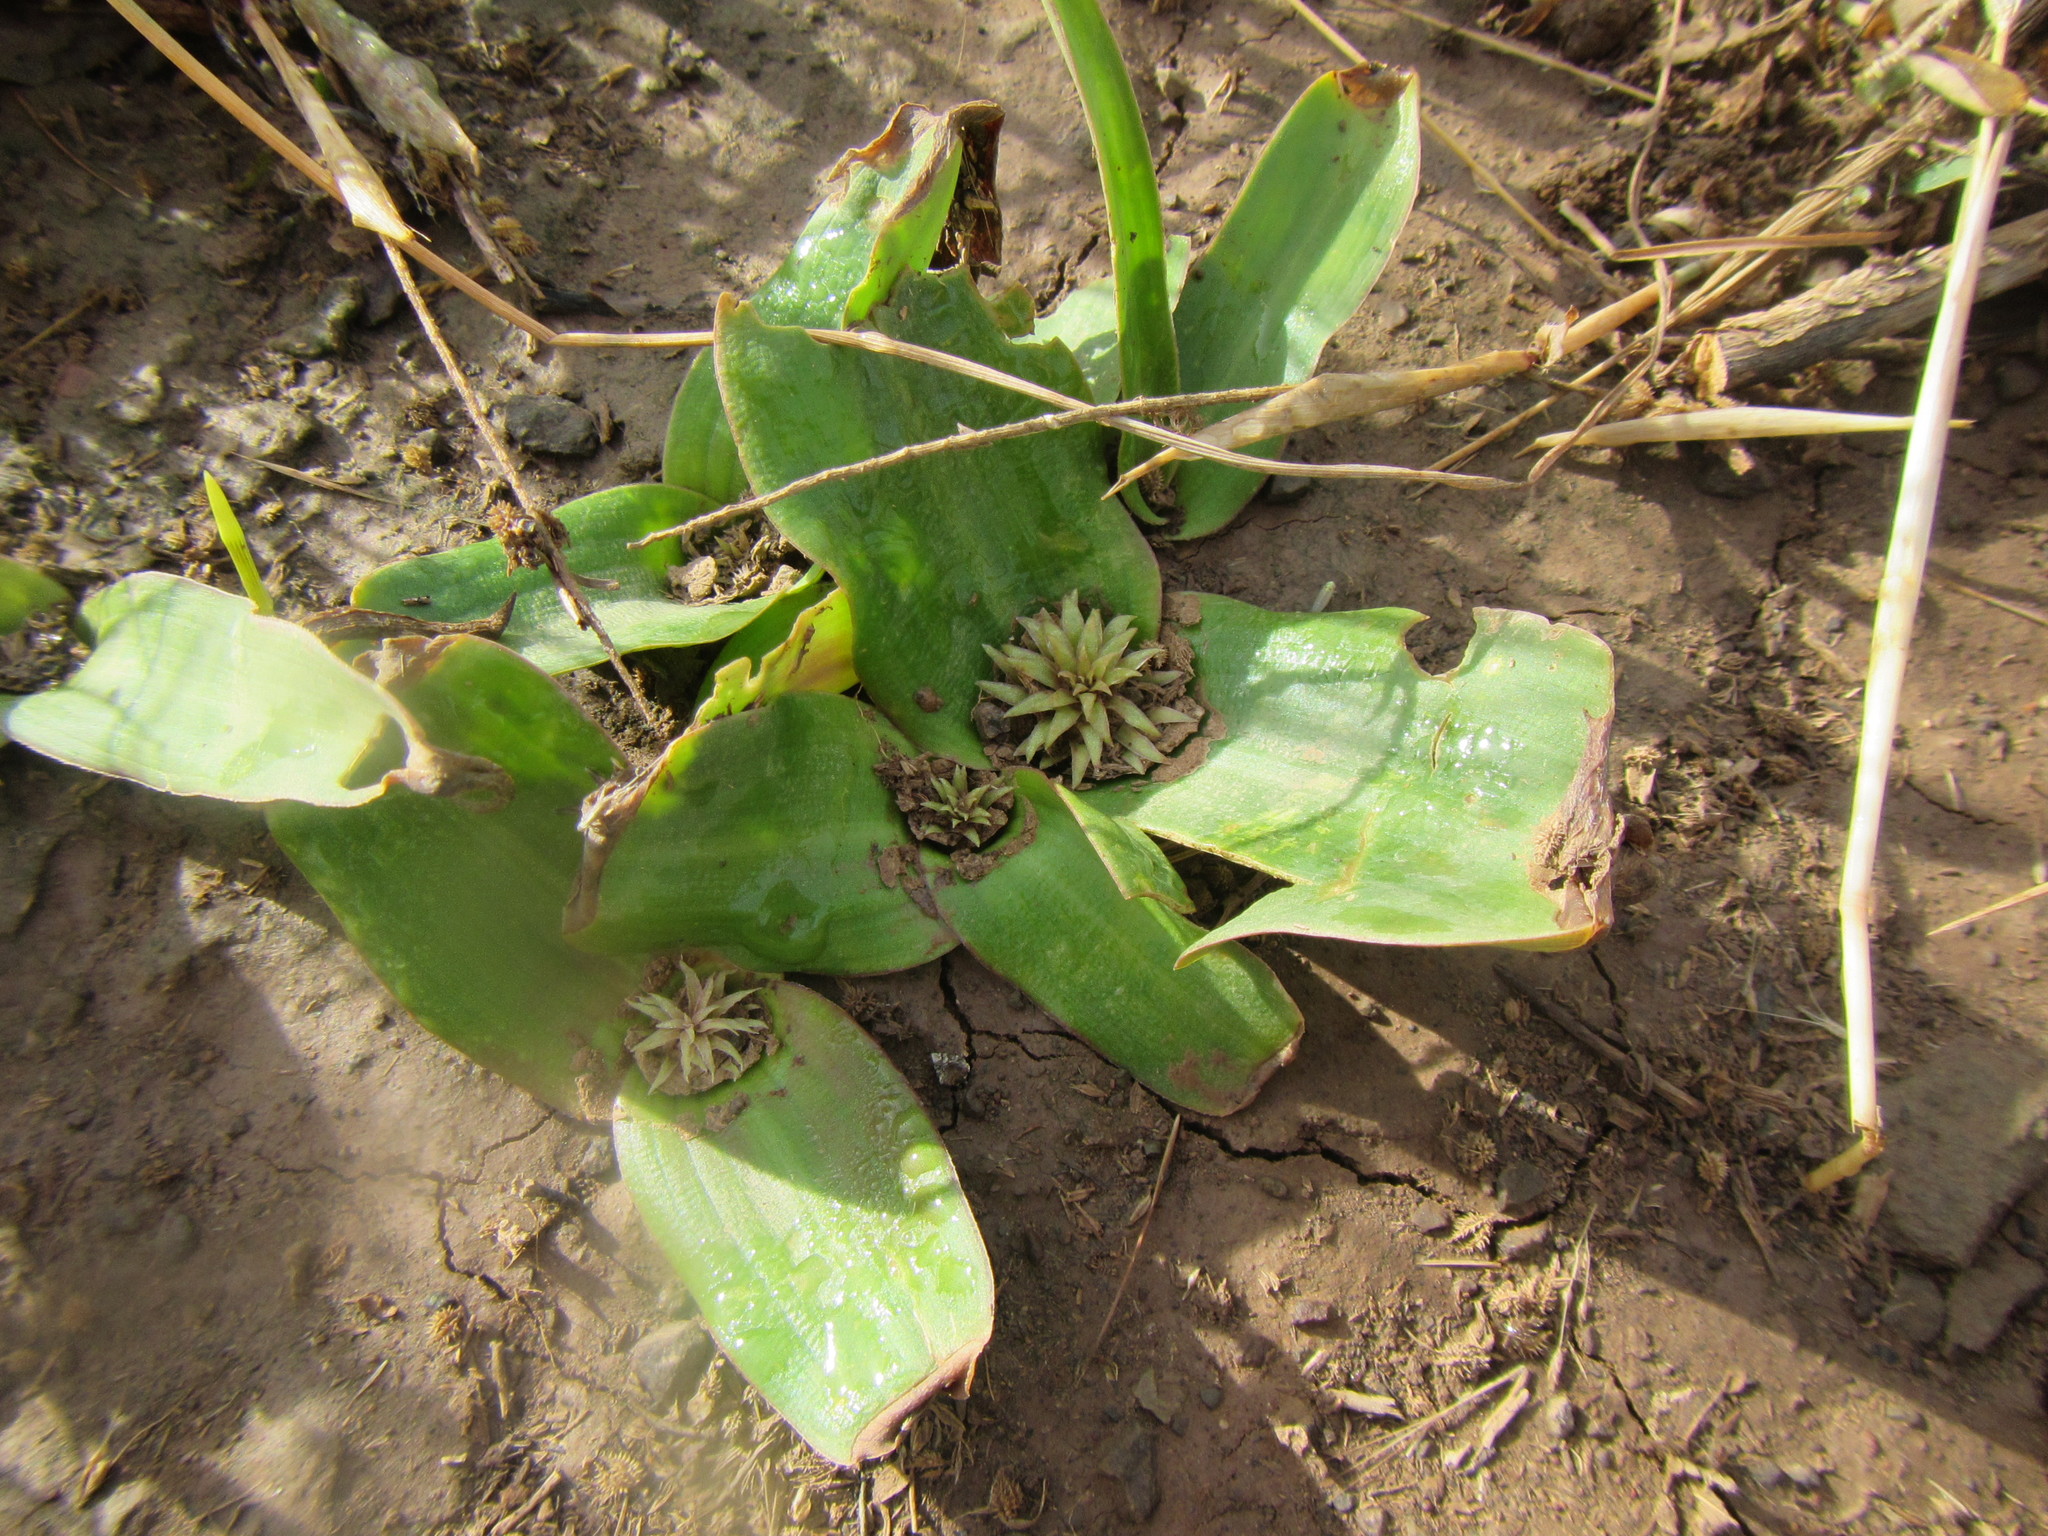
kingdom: Plantae
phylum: Tracheophyta
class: Liliopsida
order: Asparagales
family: Asparagaceae
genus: Daubenya
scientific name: Daubenya comata
